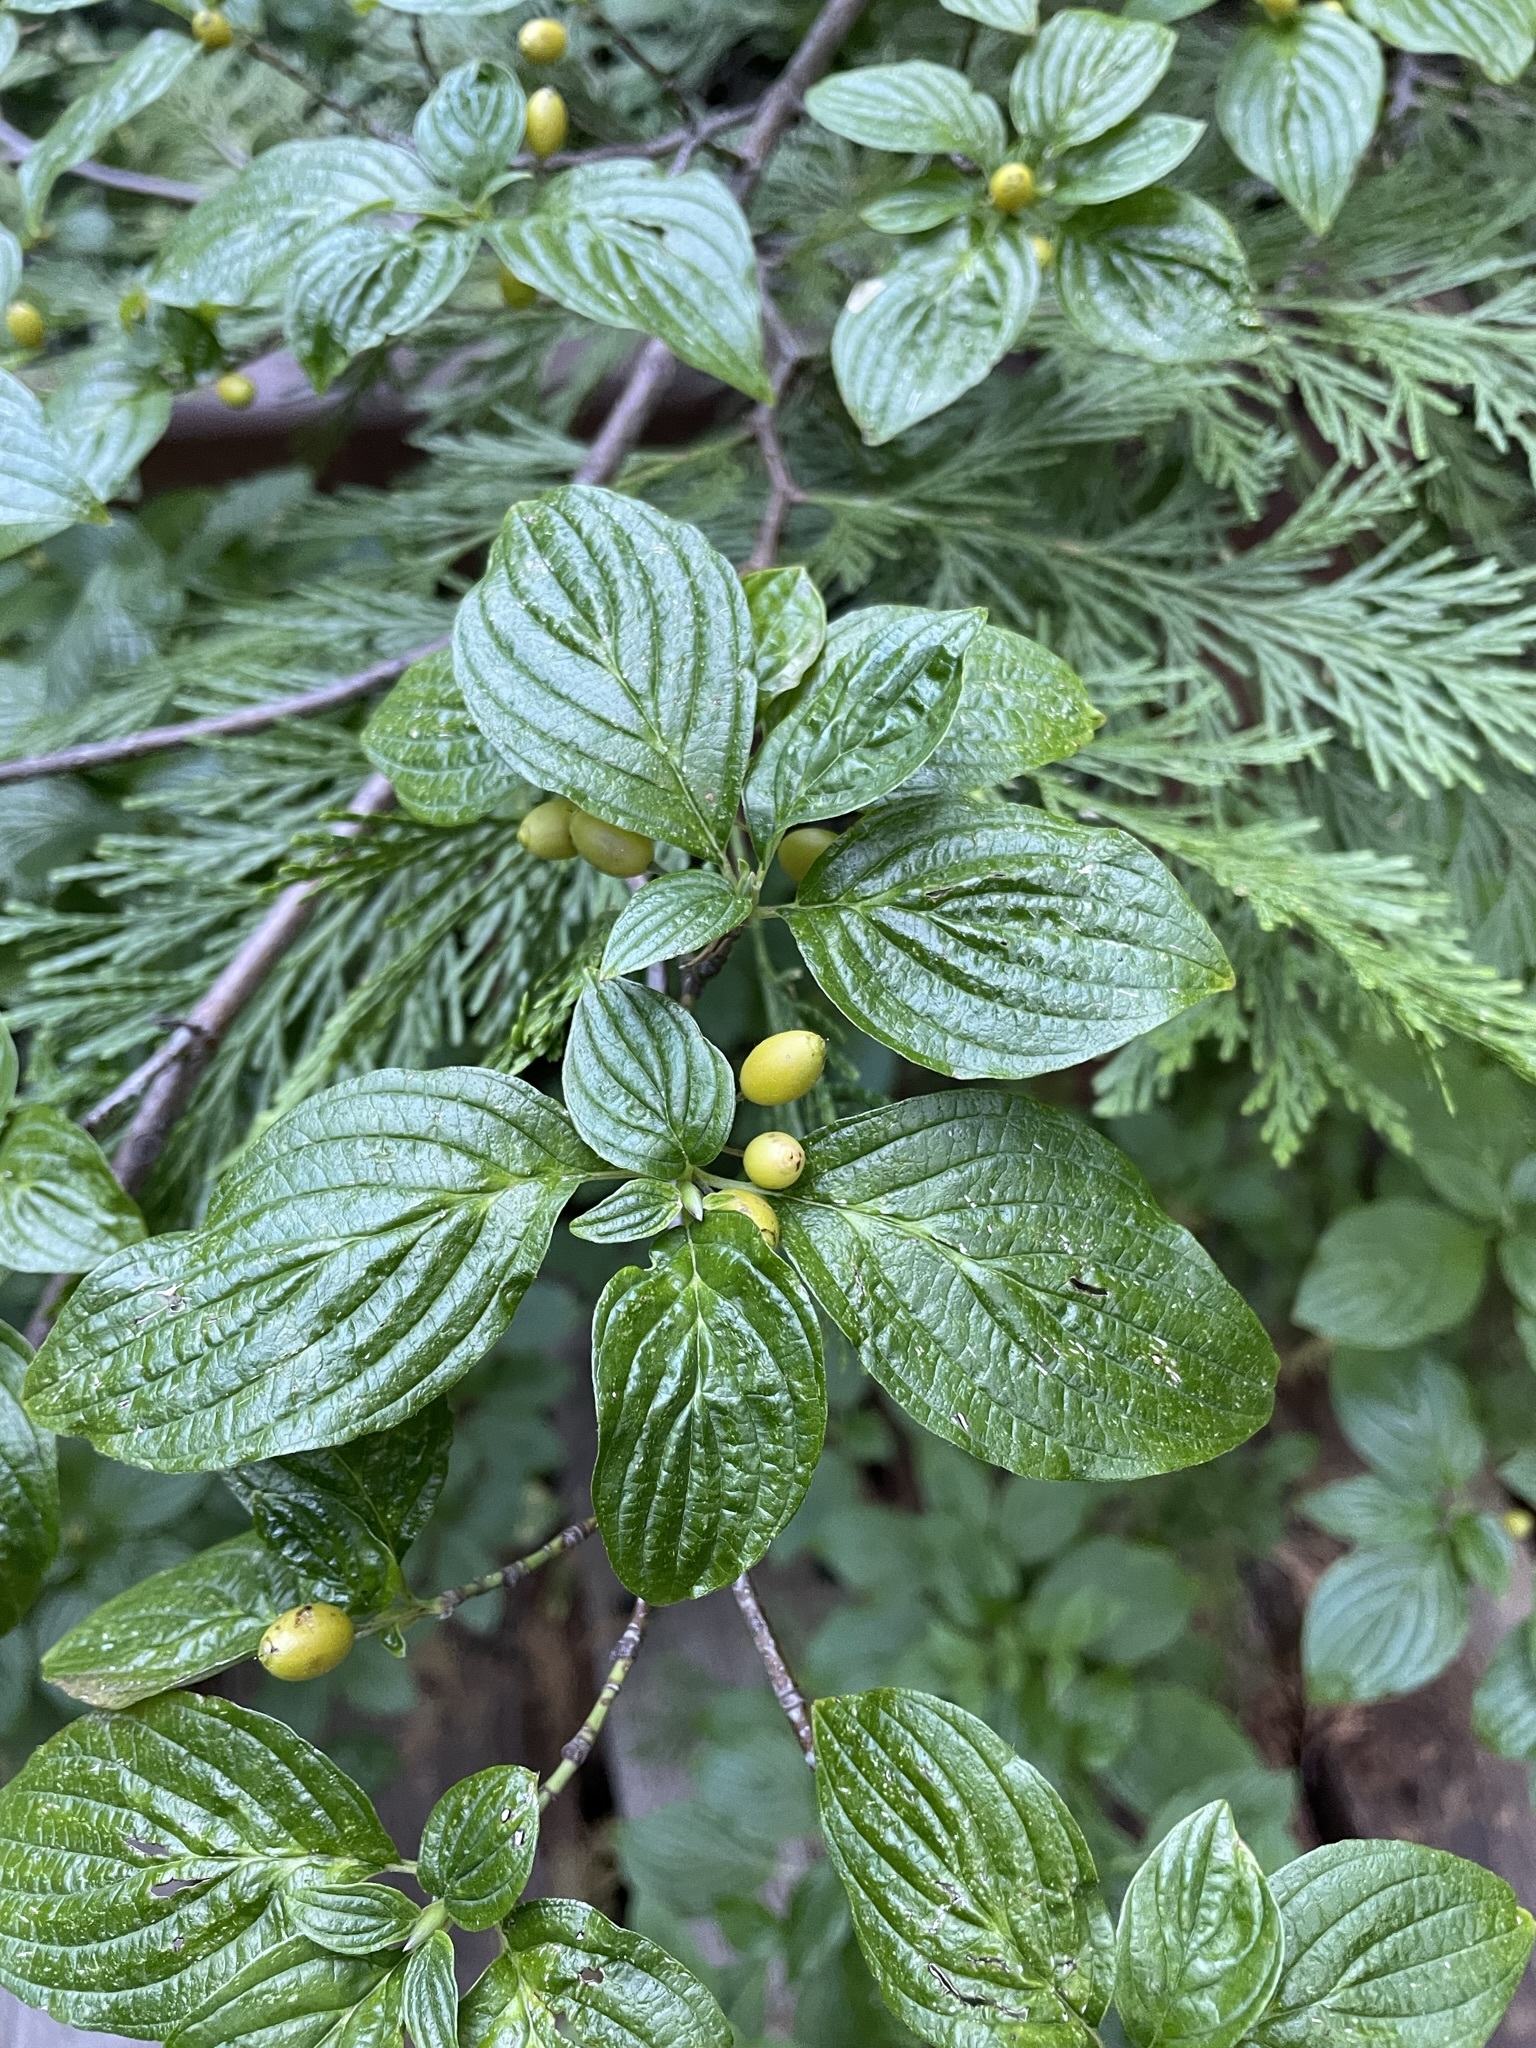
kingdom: Plantae
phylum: Tracheophyta
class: Magnoliopsida
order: Cornales
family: Cornaceae
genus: Cornus
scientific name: Cornus sessilis
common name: Blackfruit dogwood
